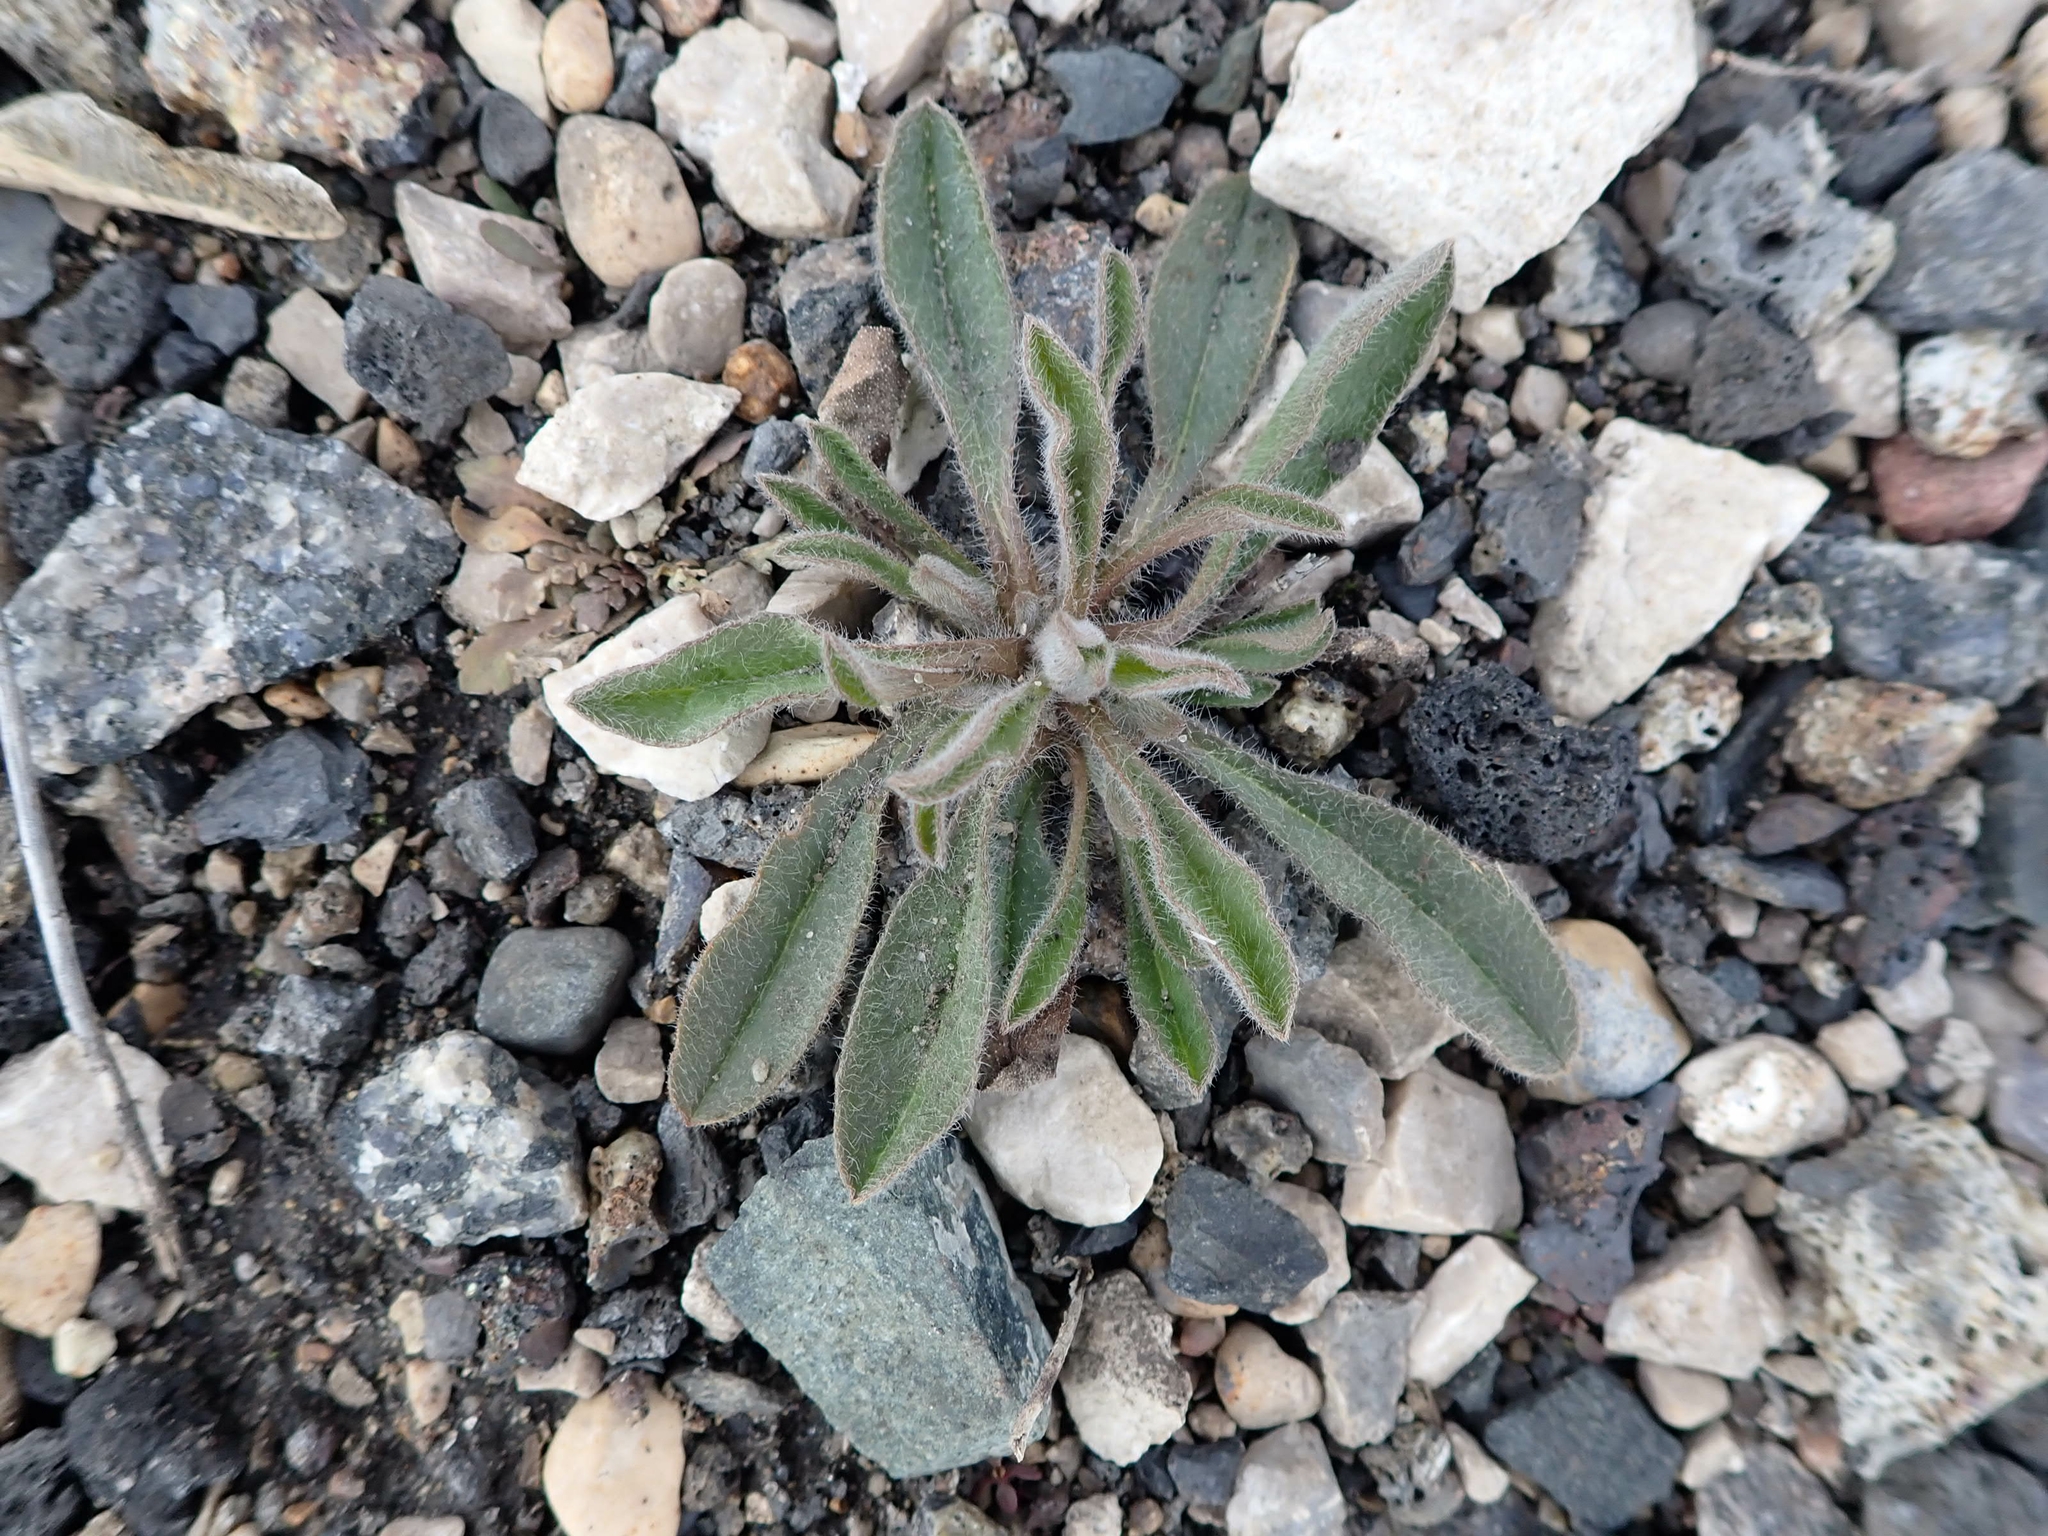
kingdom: Plantae
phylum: Tracheophyta
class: Magnoliopsida
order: Asterales
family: Asteraceae
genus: Erigeron
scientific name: Erigeron canadensis
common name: Canadian fleabane
